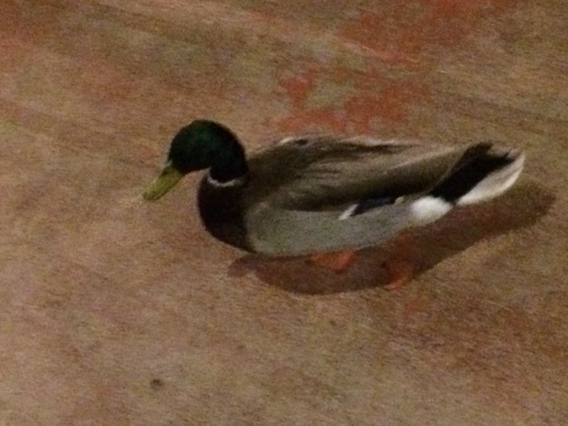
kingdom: Animalia
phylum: Chordata
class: Aves
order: Anseriformes
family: Anatidae
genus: Anas
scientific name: Anas platyrhynchos
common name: Mallard
